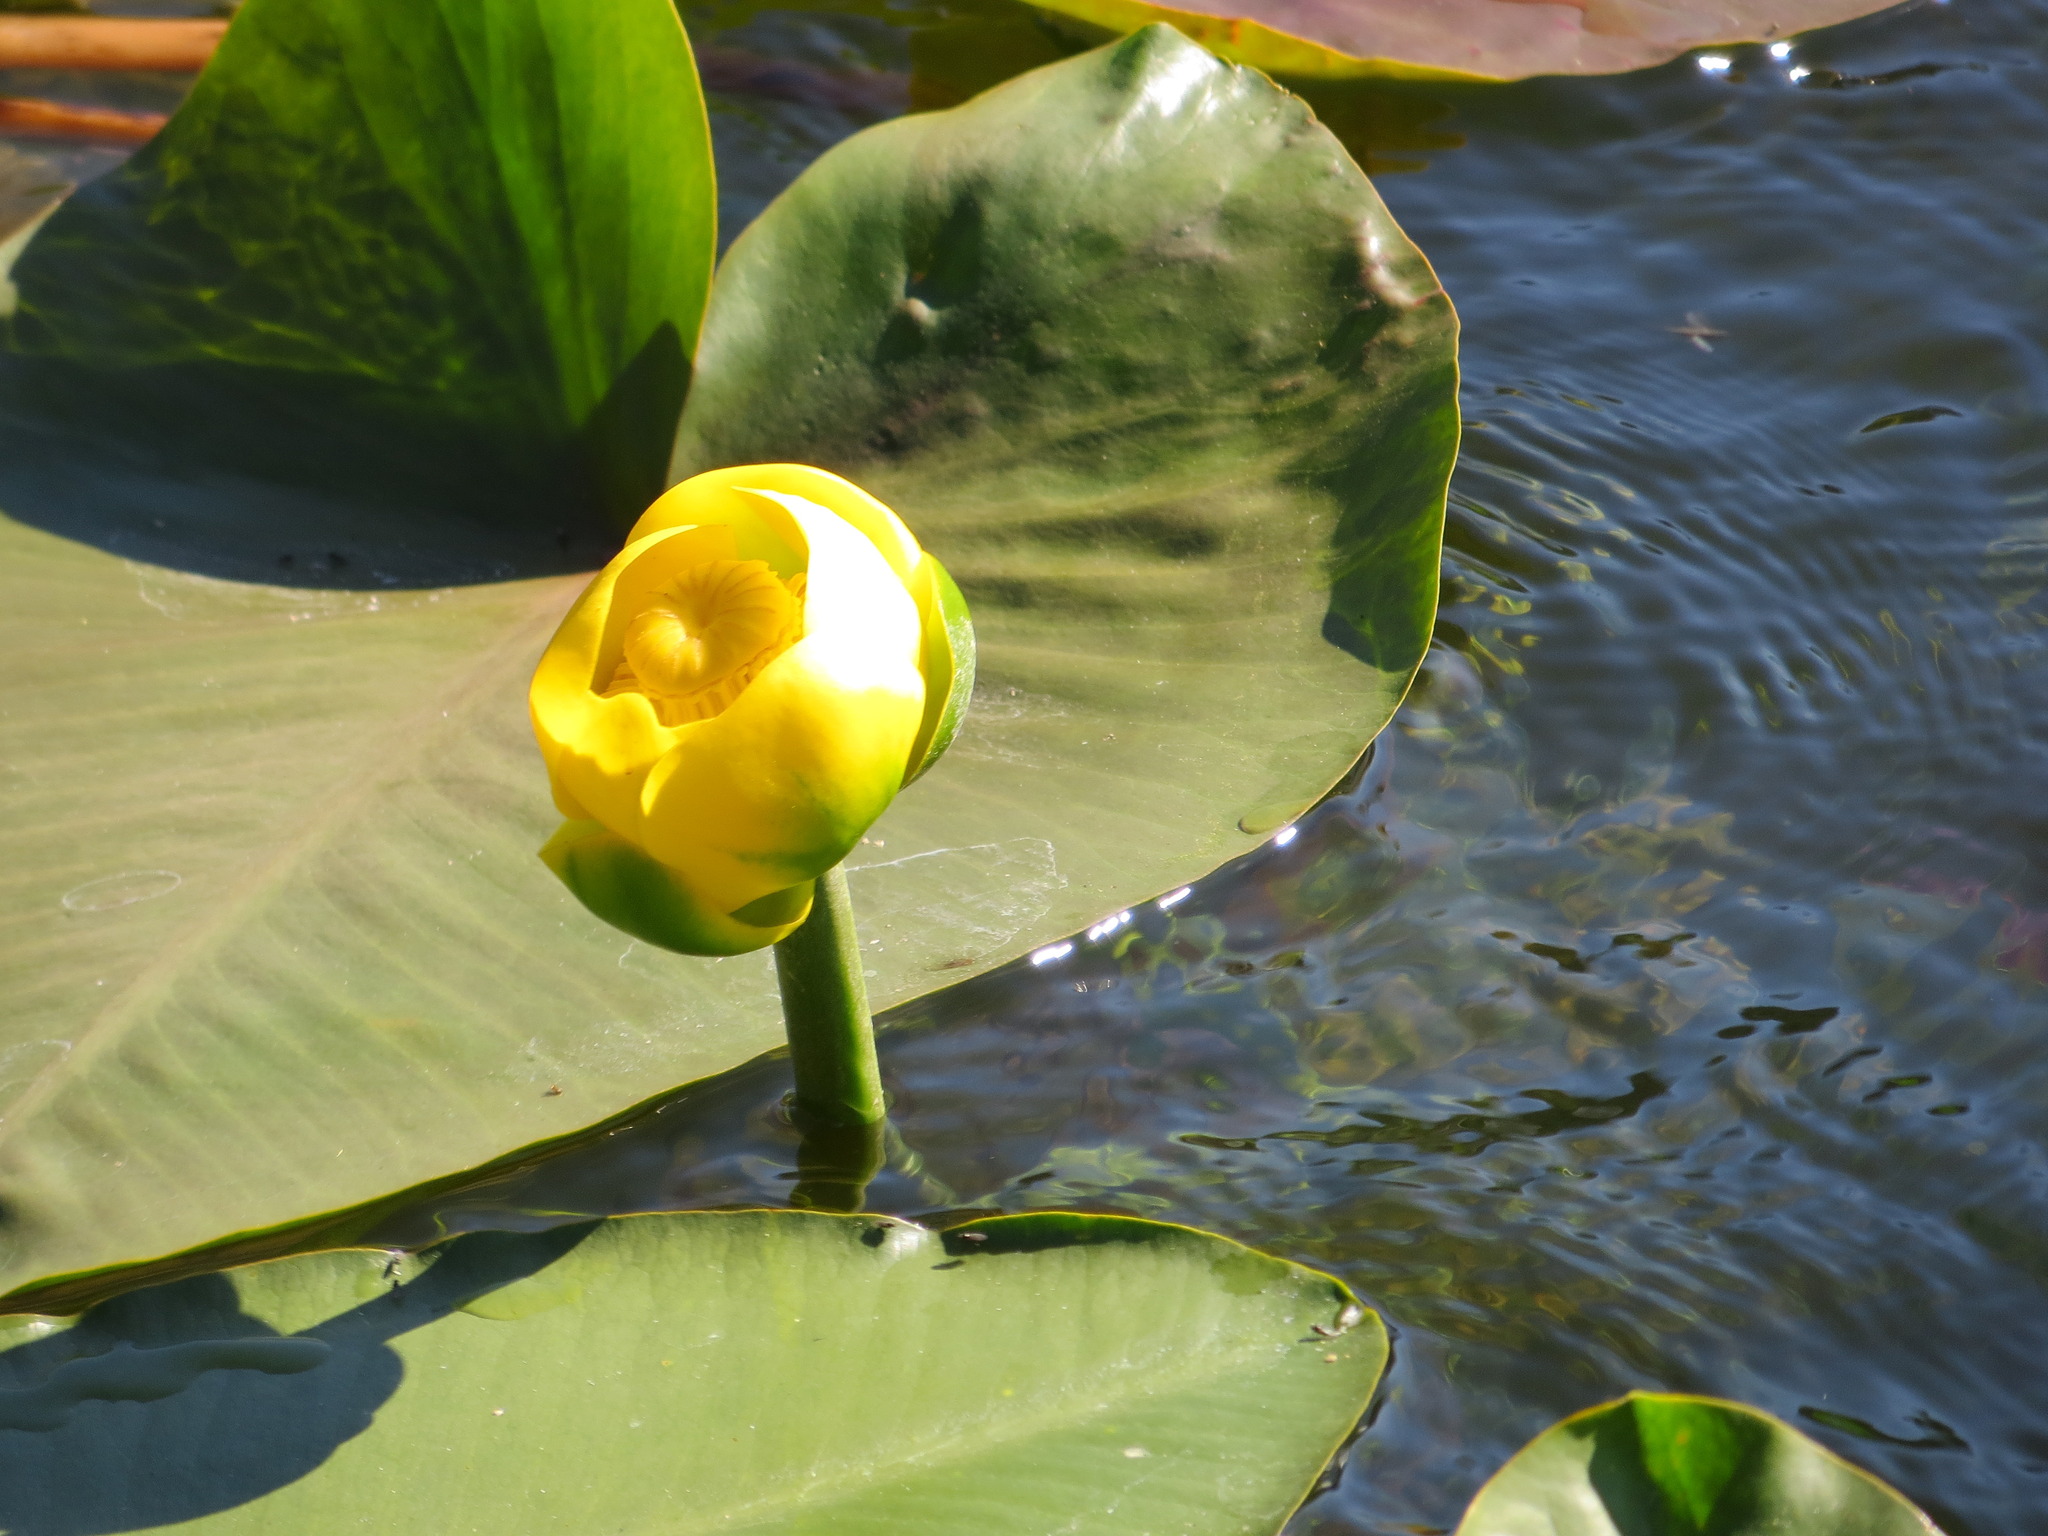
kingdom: Plantae
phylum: Tracheophyta
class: Magnoliopsida
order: Nymphaeales
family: Nymphaeaceae
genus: Nuphar
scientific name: Nuphar polysepala
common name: Rocky mountain cow-lily
